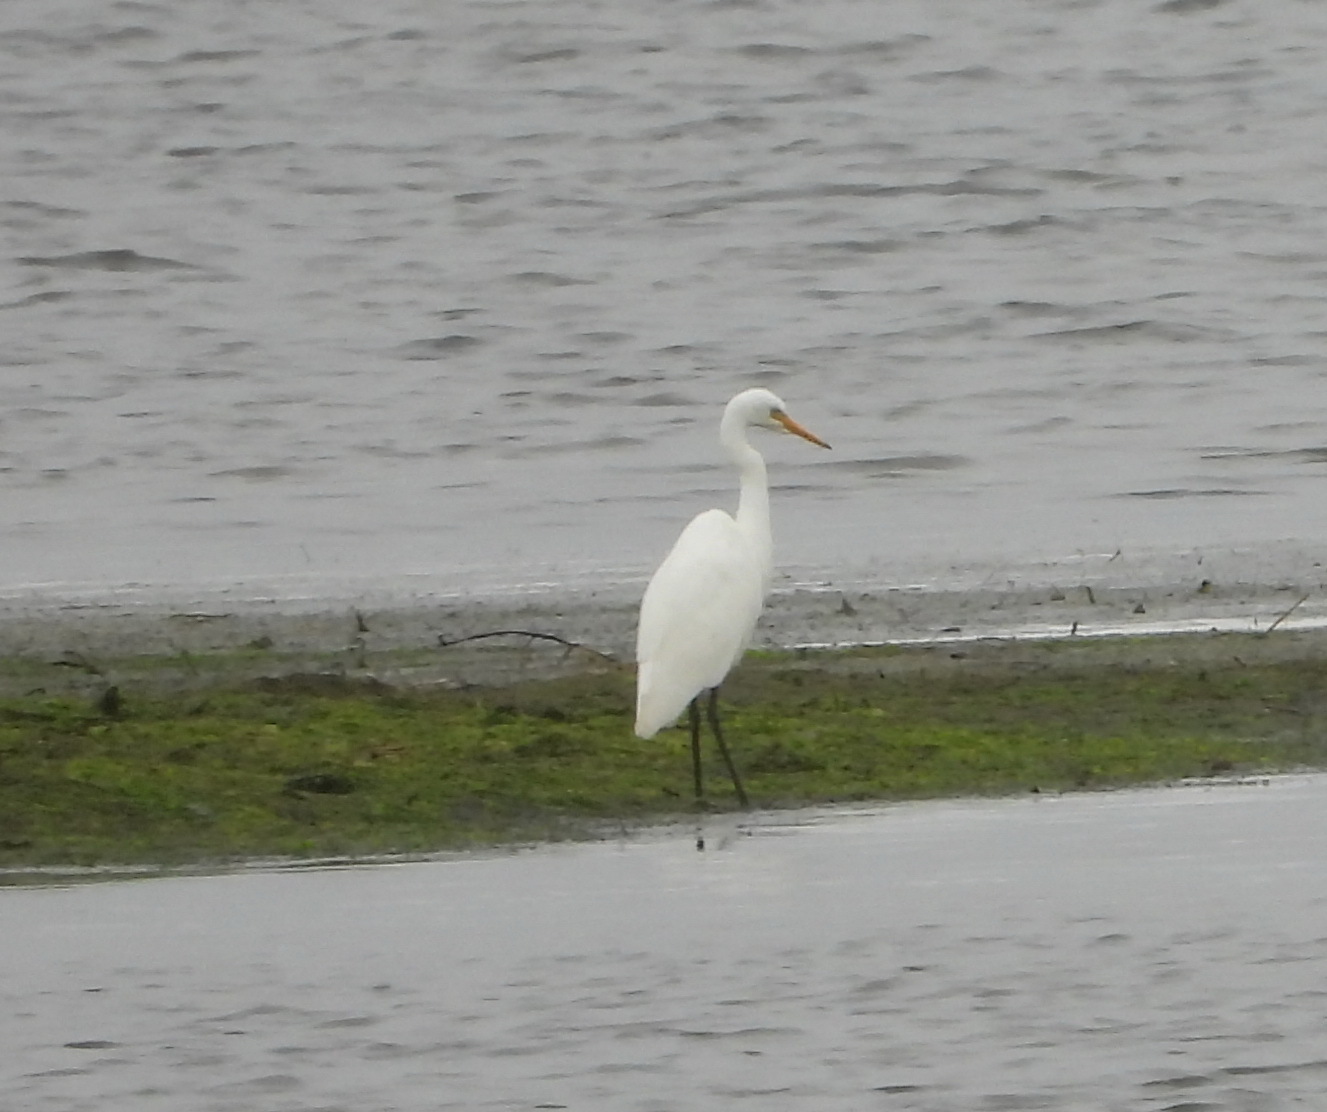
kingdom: Animalia
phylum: Chordata
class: Aves
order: Pelecaniformes
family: Ardeidae
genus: Egretta
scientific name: Egretta intermedia
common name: Intermediate egret
